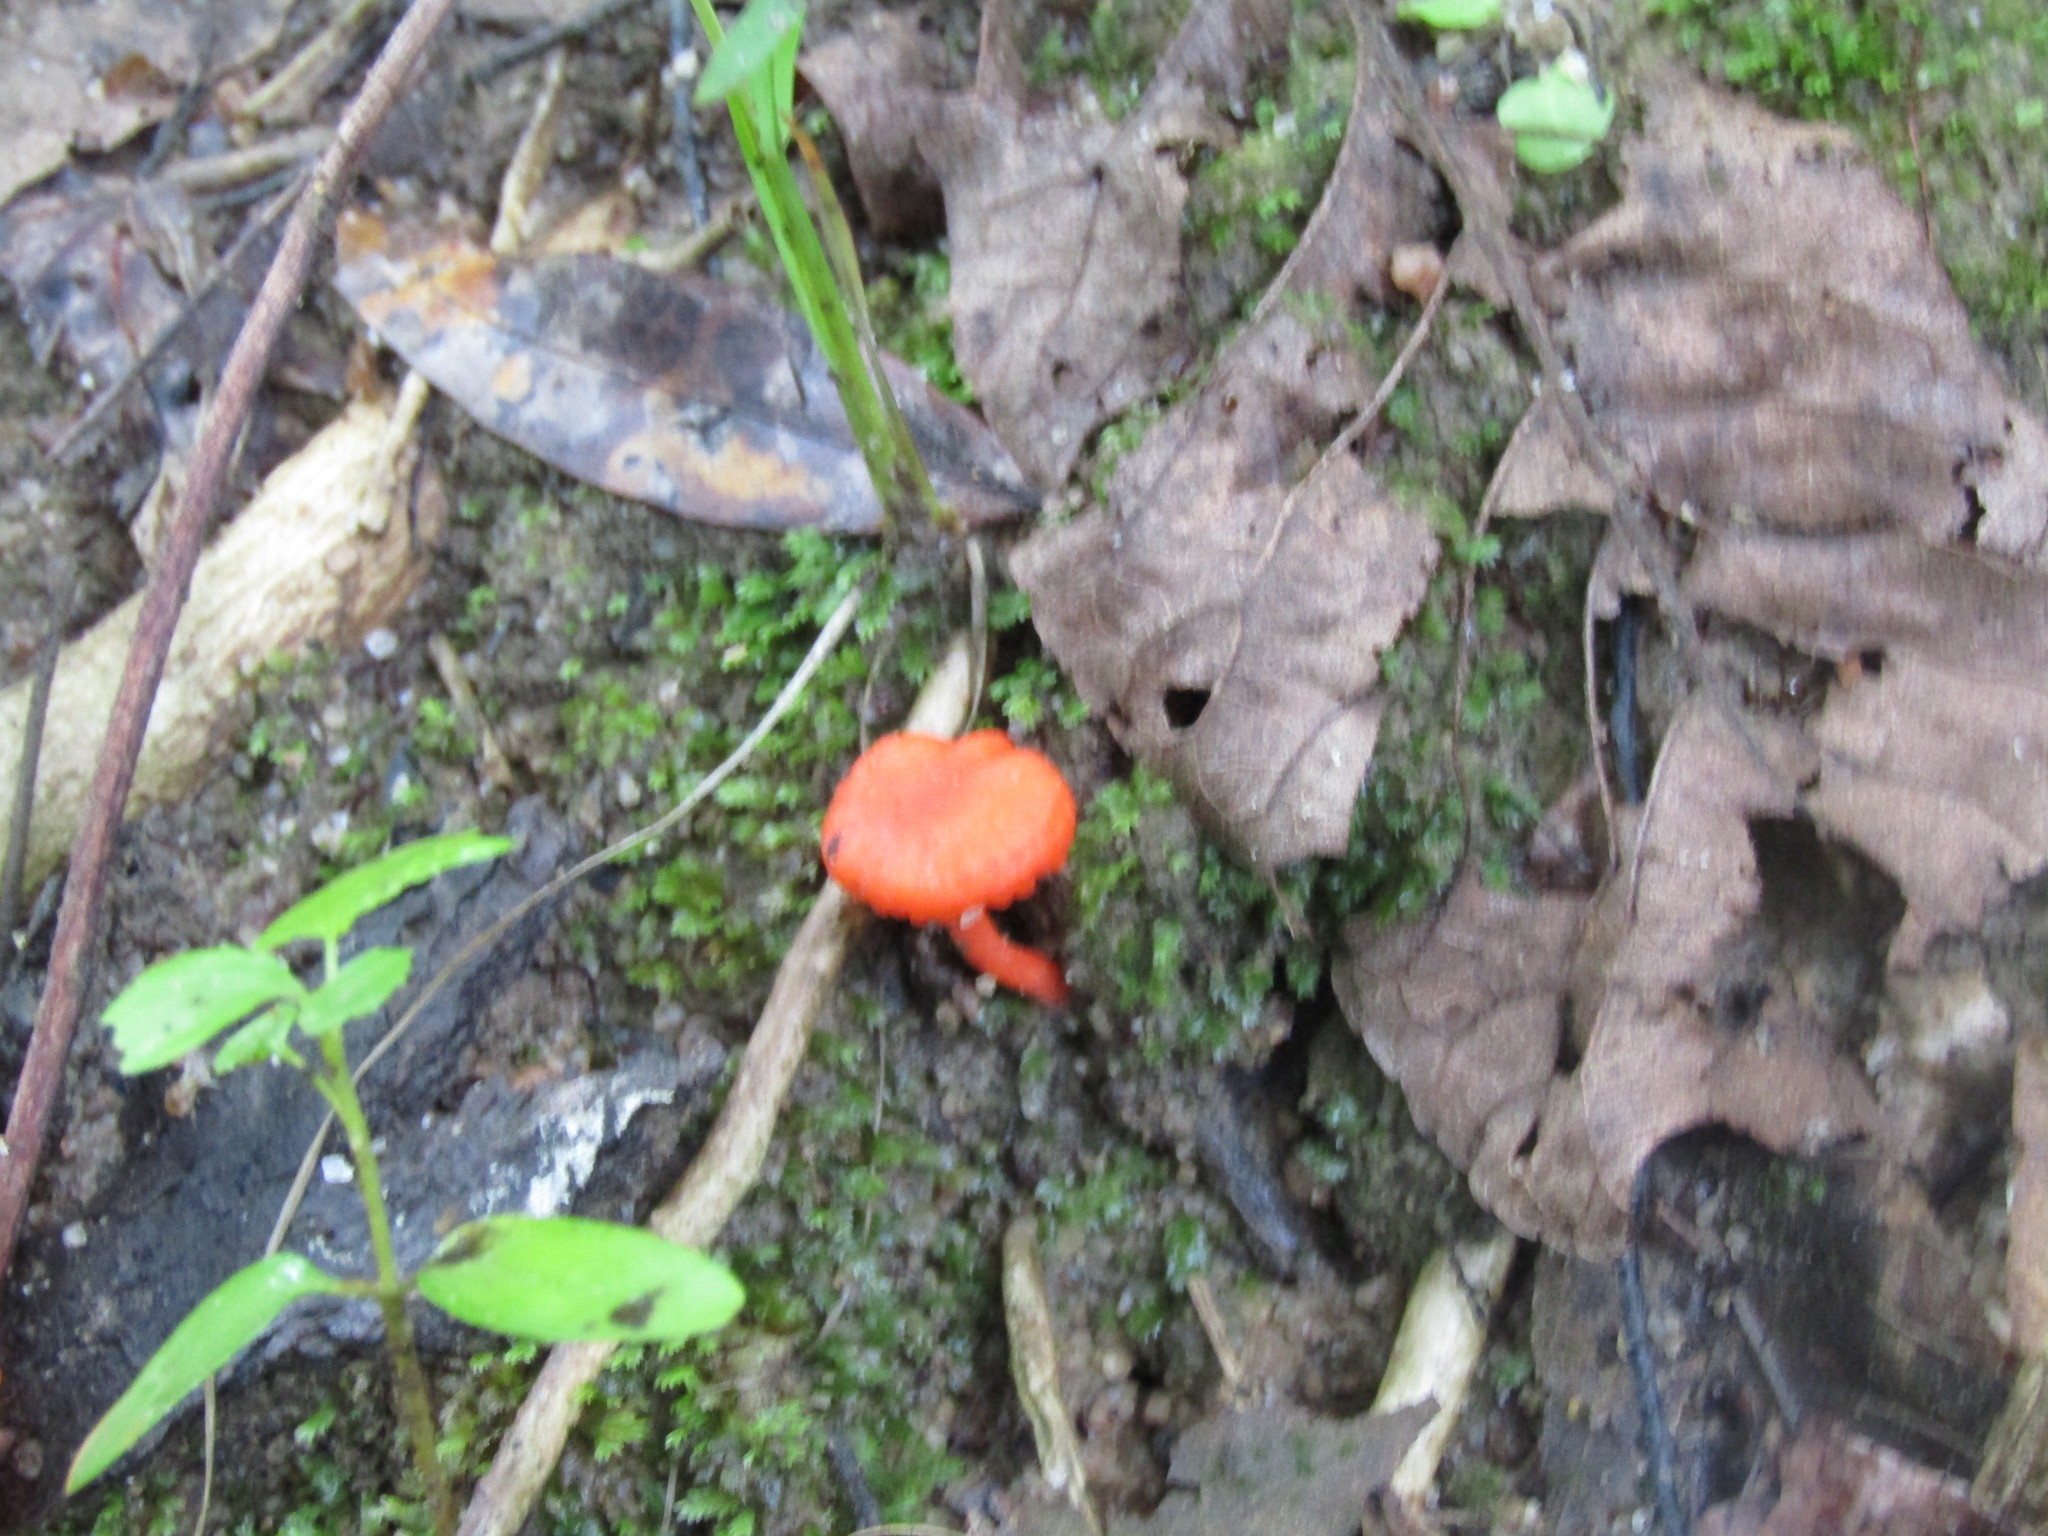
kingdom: Fungi
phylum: Basidiomycota
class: Agaricomycetes
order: Cantharellales
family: Hydnaceae
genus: Cantharellus
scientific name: Cantharellus cinnabarinus
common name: Cinnabar chanterelle
